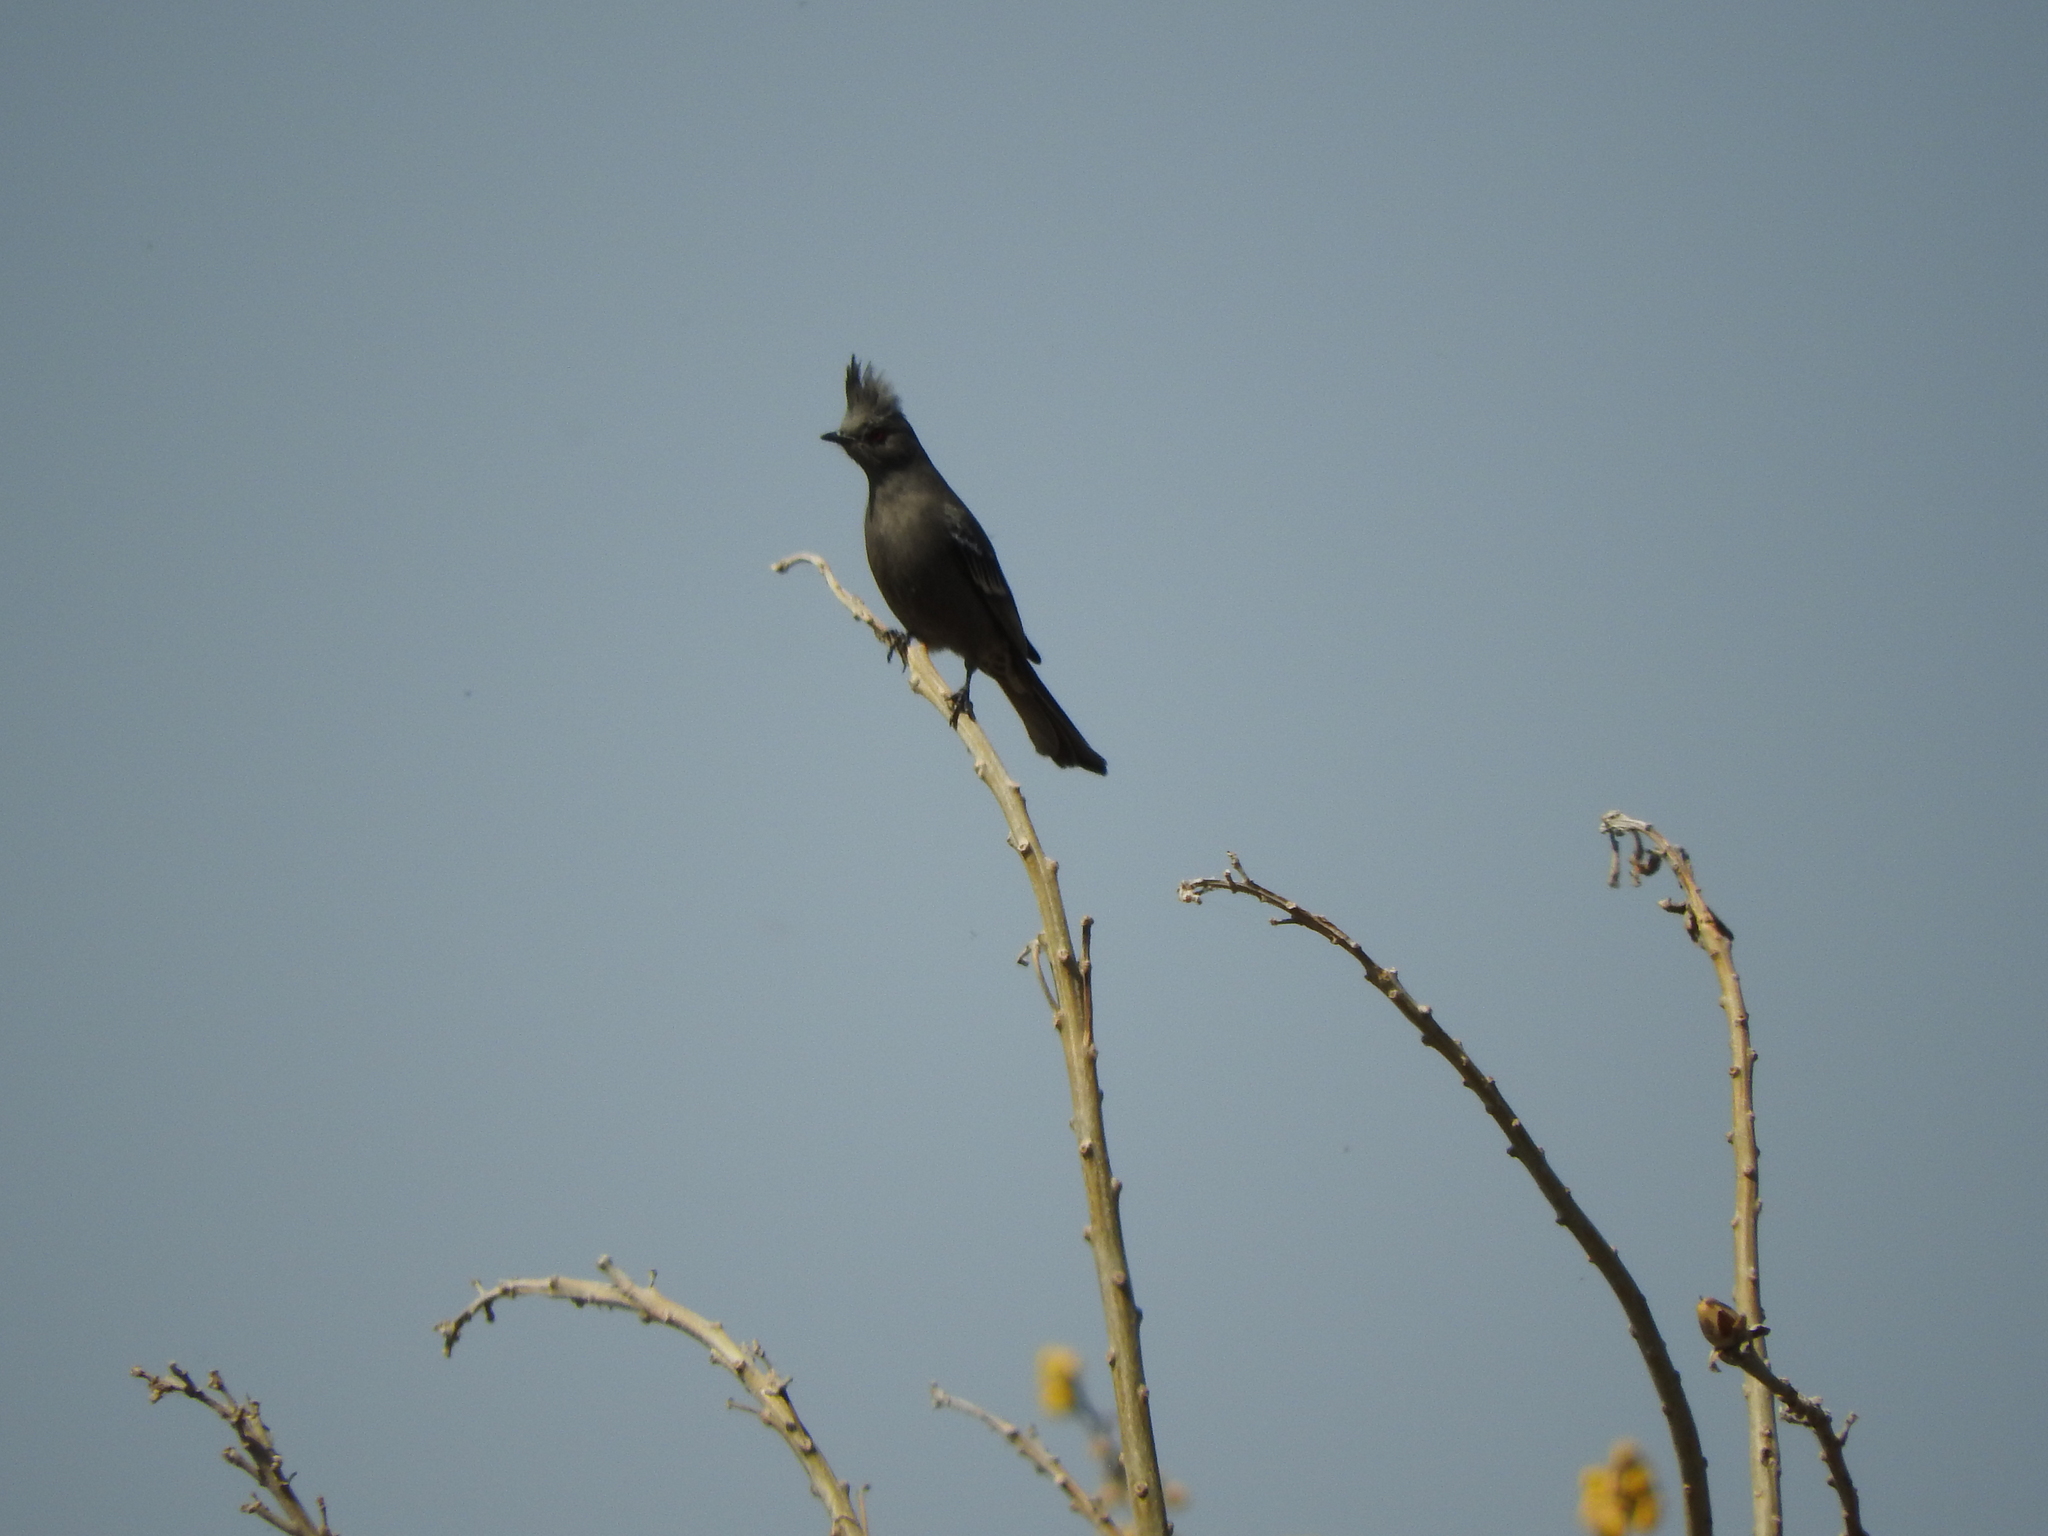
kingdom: Animalia
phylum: Chordata
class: Aves
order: Passeriformes
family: Ptilogonatidae
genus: Phainopepla
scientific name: Phainopepla nitens
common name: Phainopepla
